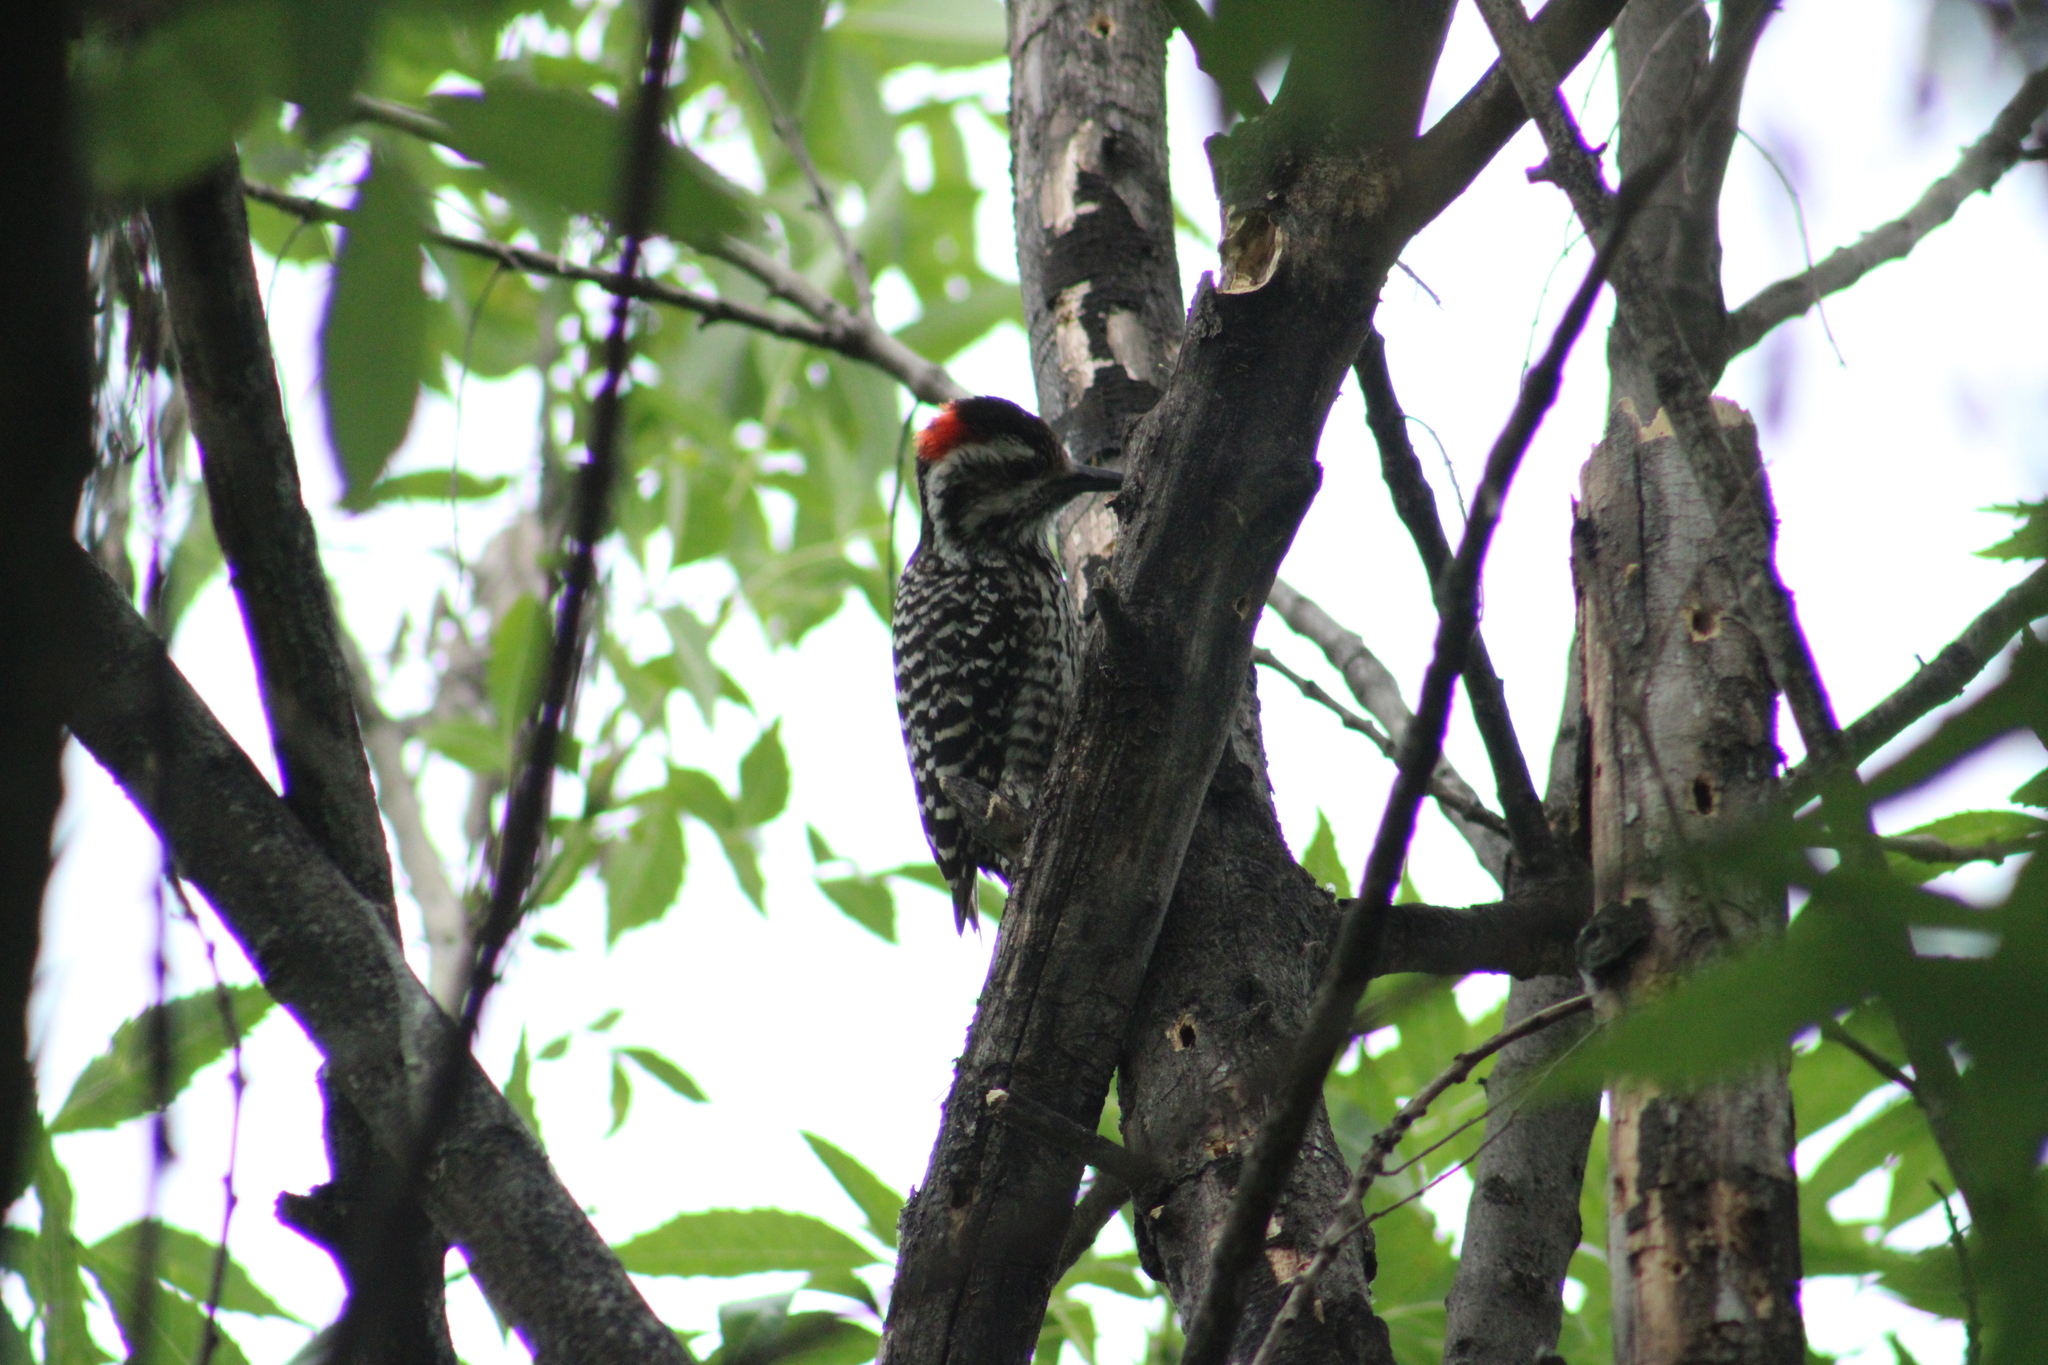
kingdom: Animalia
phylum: Chordata
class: Aves
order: Piciformes
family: Picidae
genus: Veniliornis
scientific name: Veniliornis lignarius
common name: Striped woodpecker
